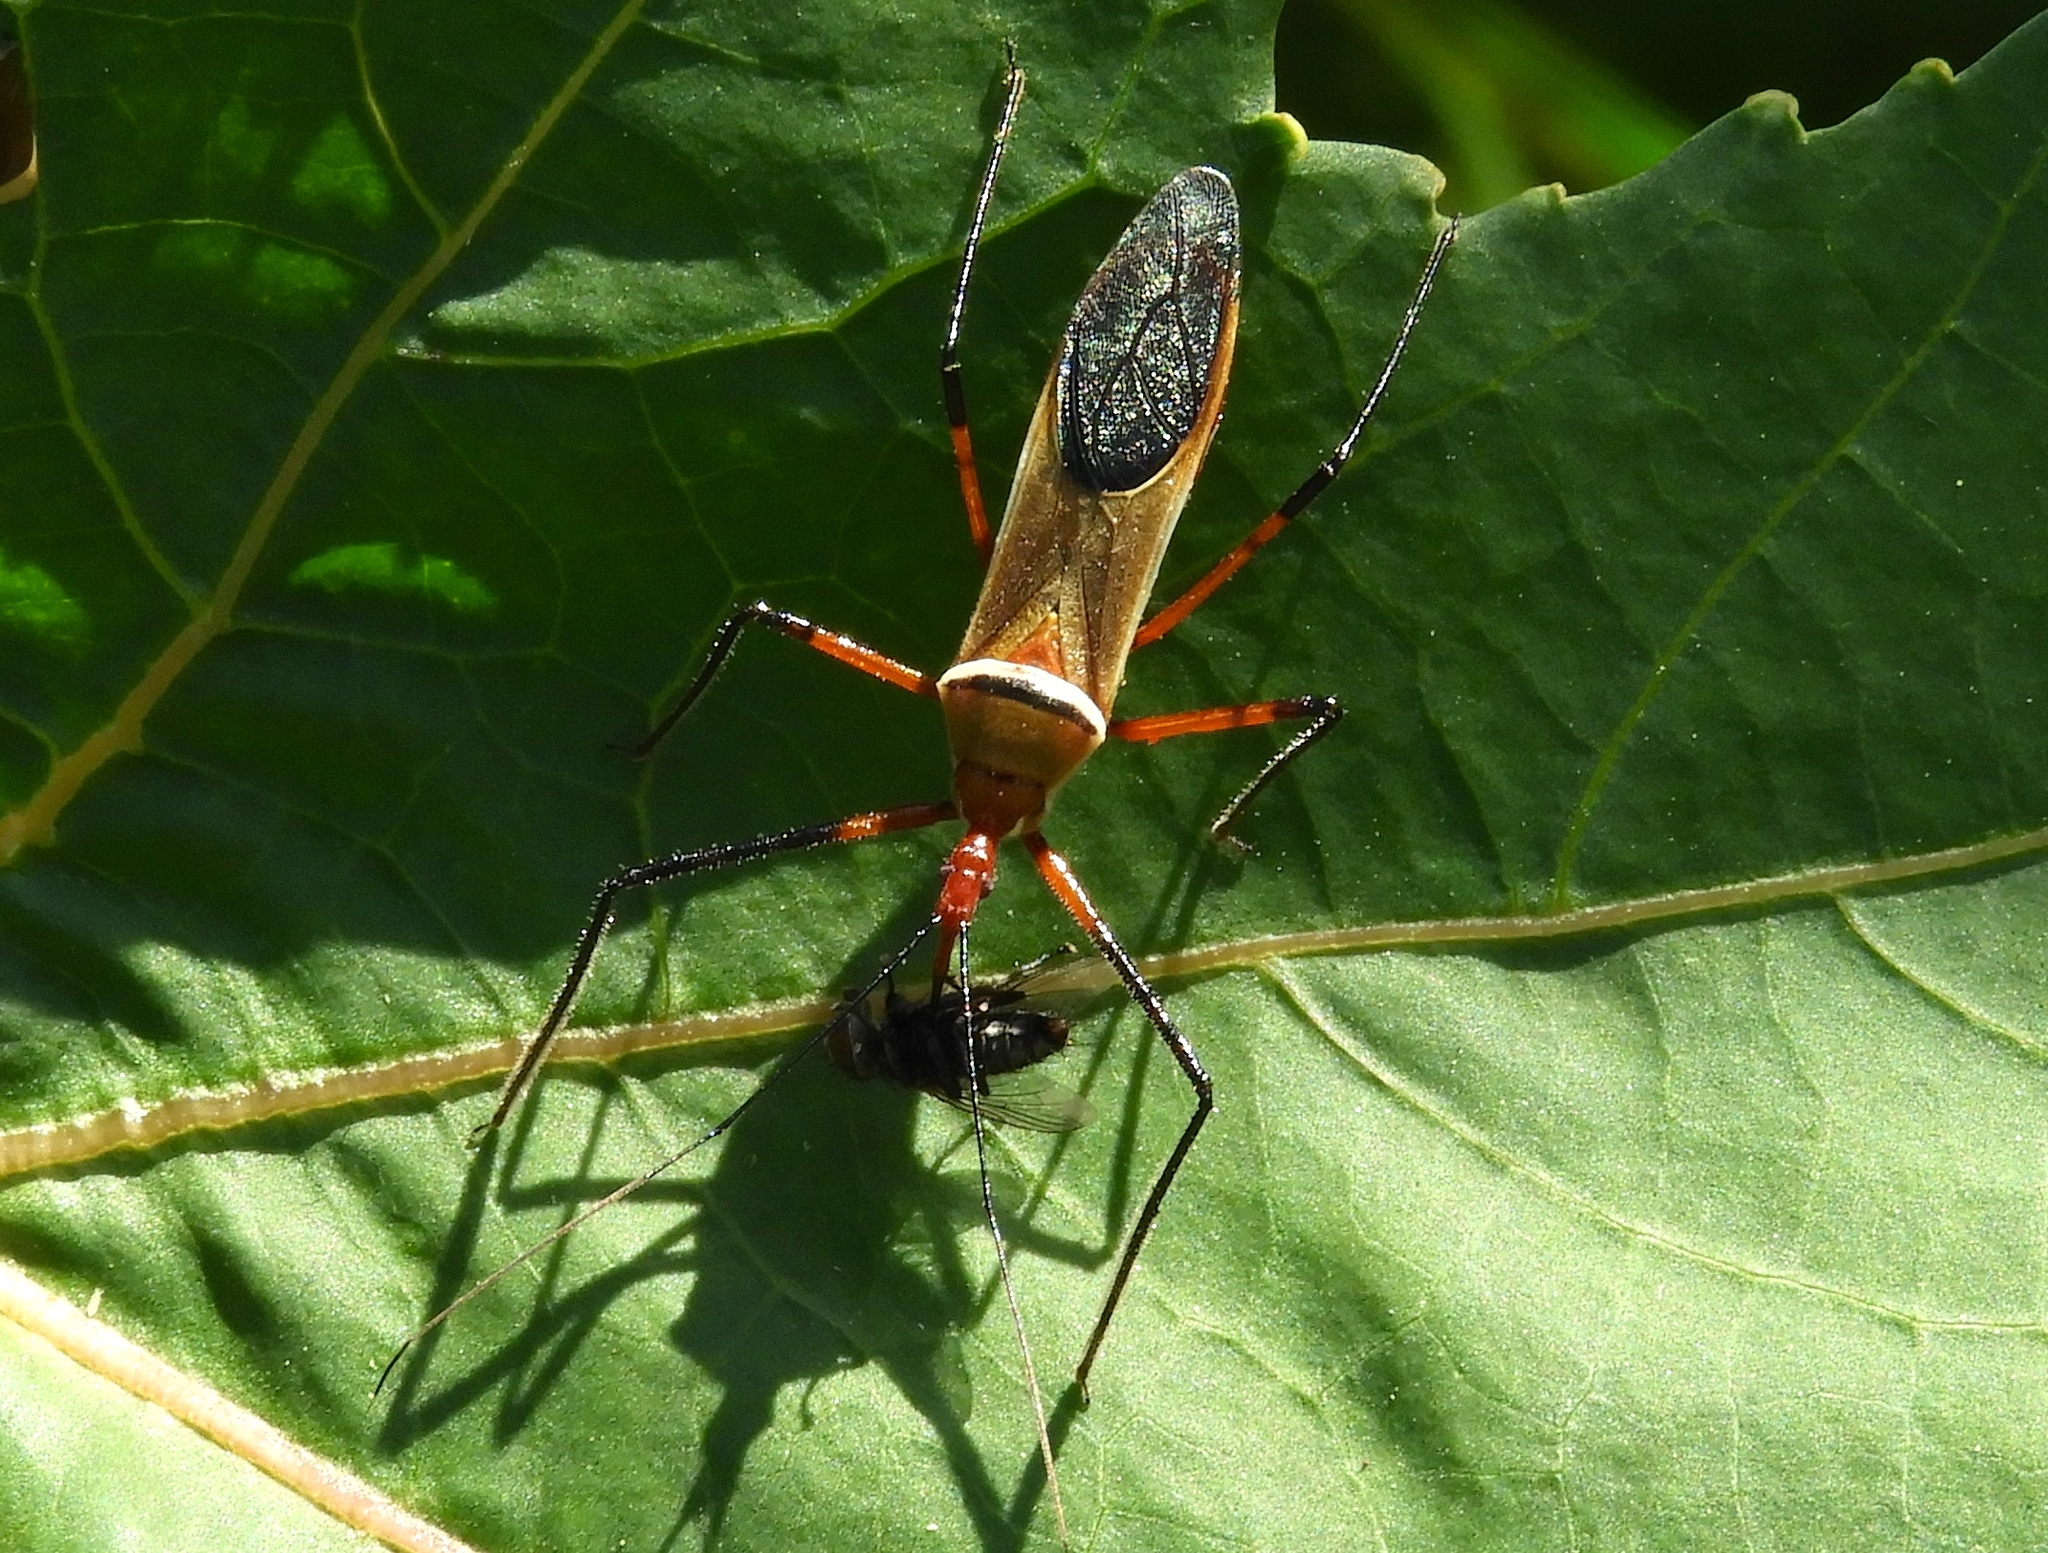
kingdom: Animalia
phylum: Arthropoda
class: Insecta
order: Hemiptera
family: Reduviidae
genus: Zelus
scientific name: Zelus grassans
